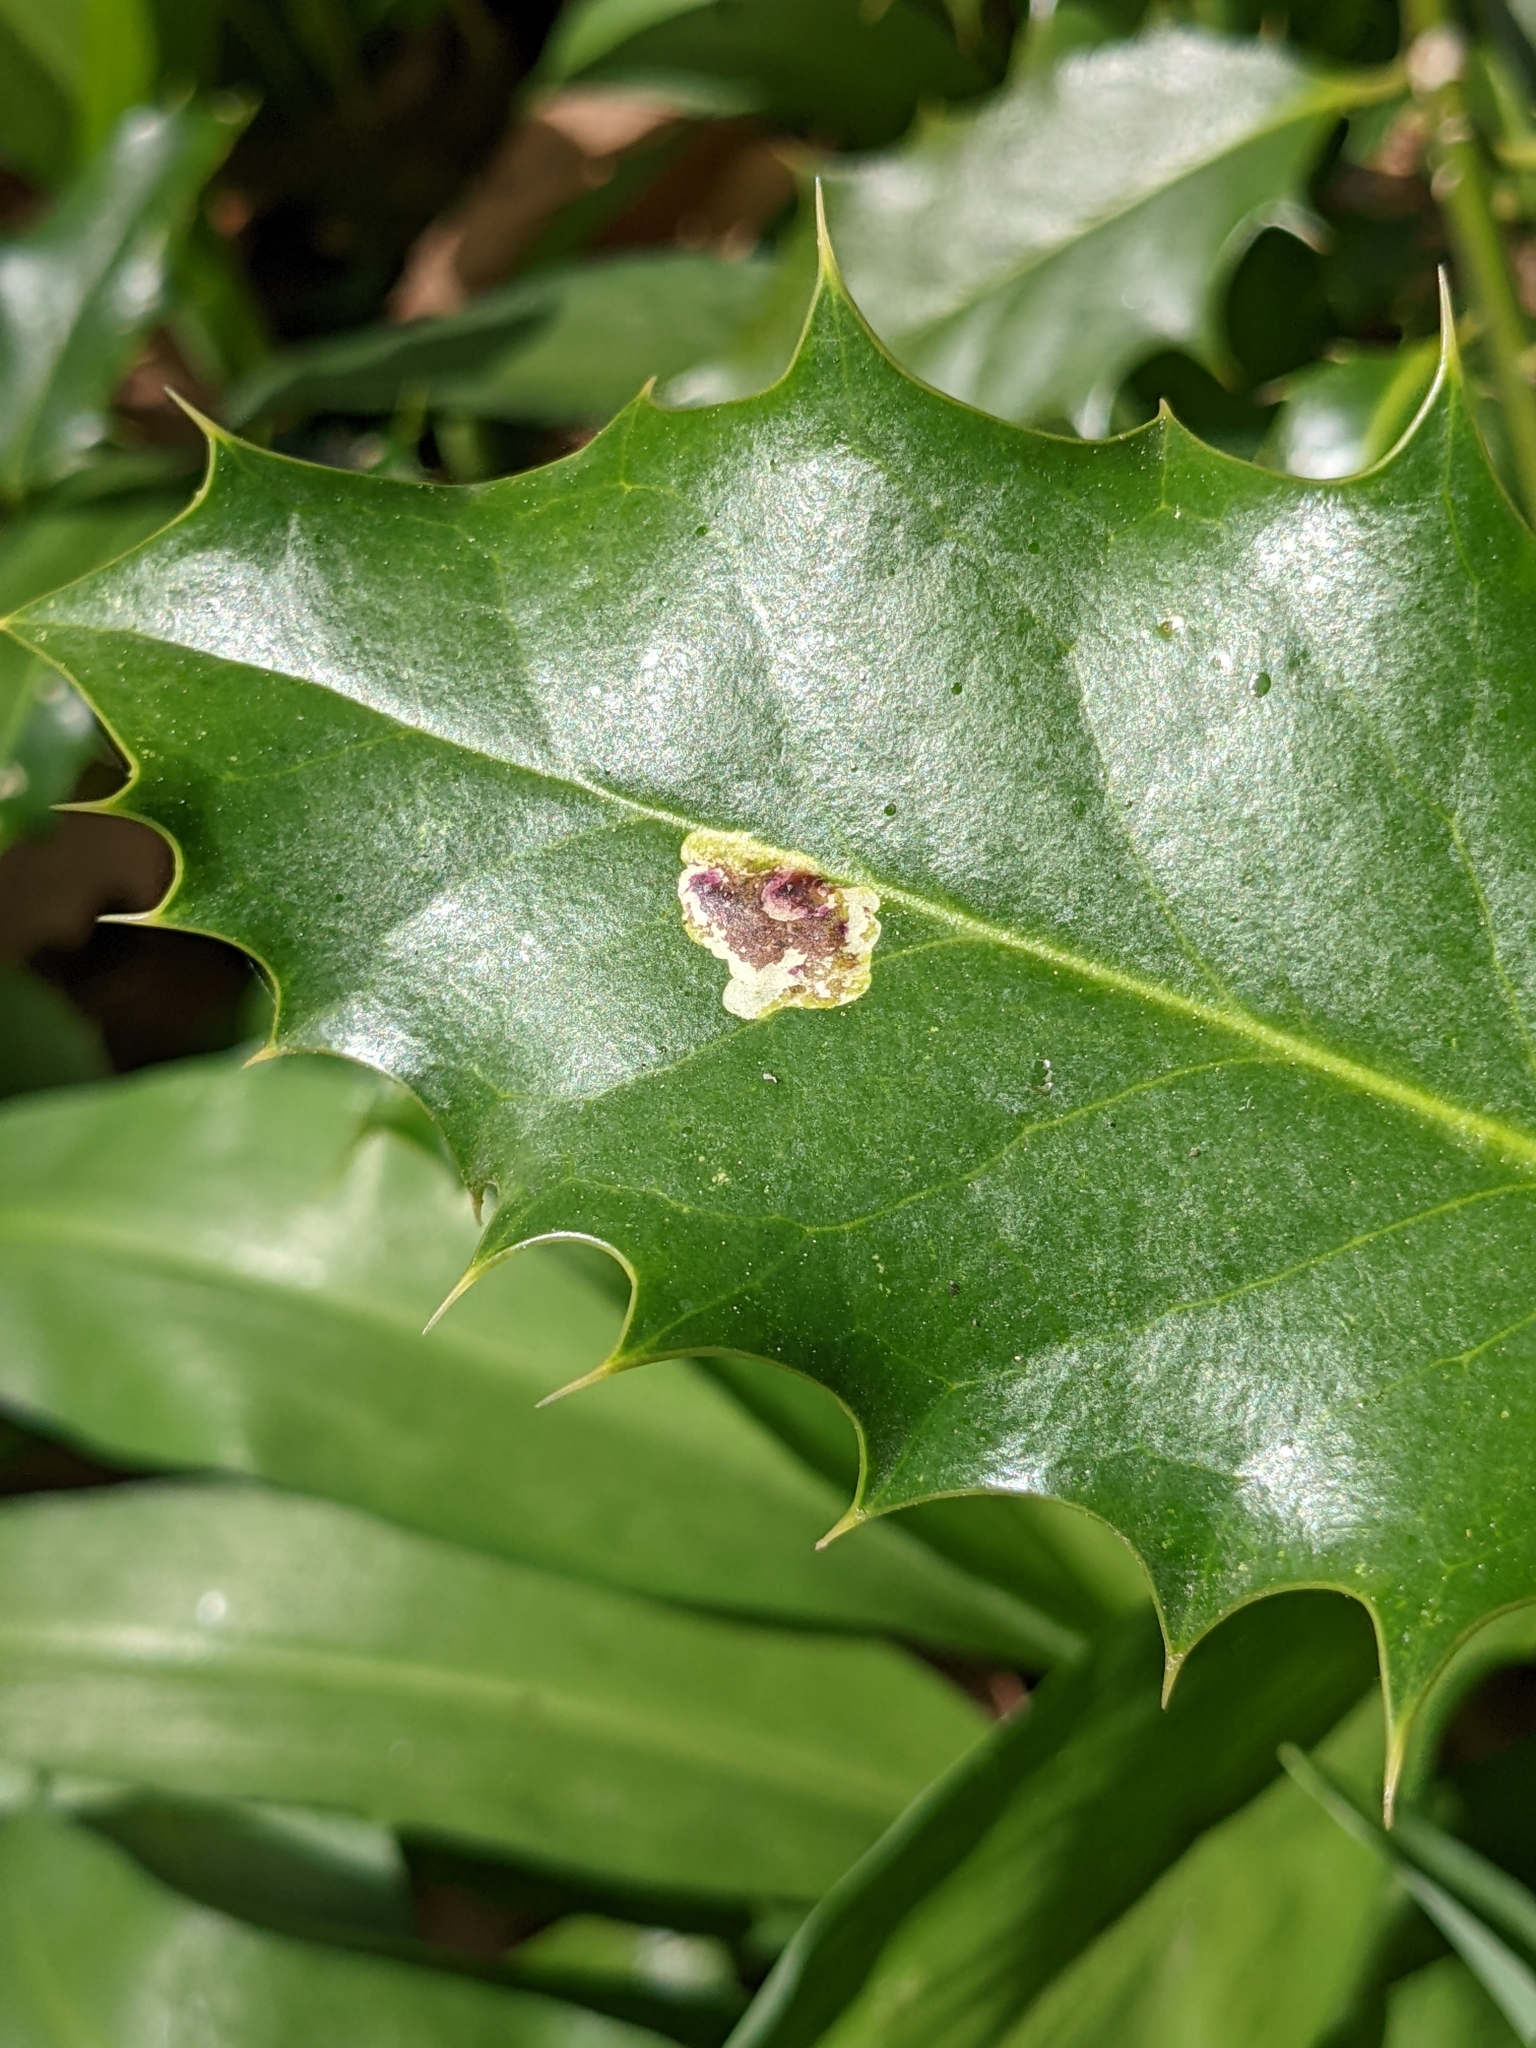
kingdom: Animalia
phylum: Arthropoda
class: Insecta
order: Diptera
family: Agromyzidae
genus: Phytomyza
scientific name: Phytomyza ilicis
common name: Holly leafminer
